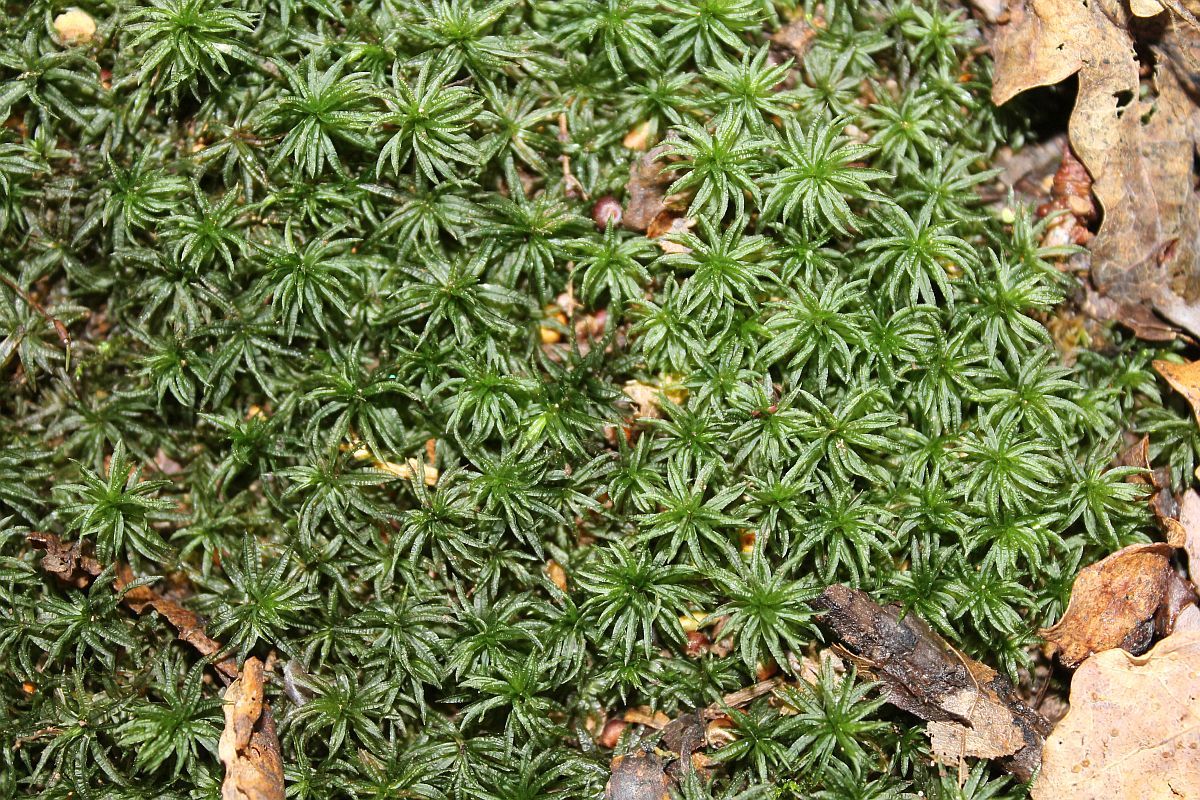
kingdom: Plantae
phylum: Bryophyta
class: Polytrichopsida
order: Polytrichales
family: Polytrichaceae
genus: Atrichum
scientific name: Atrichum undulatum
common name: Common smoothcap
